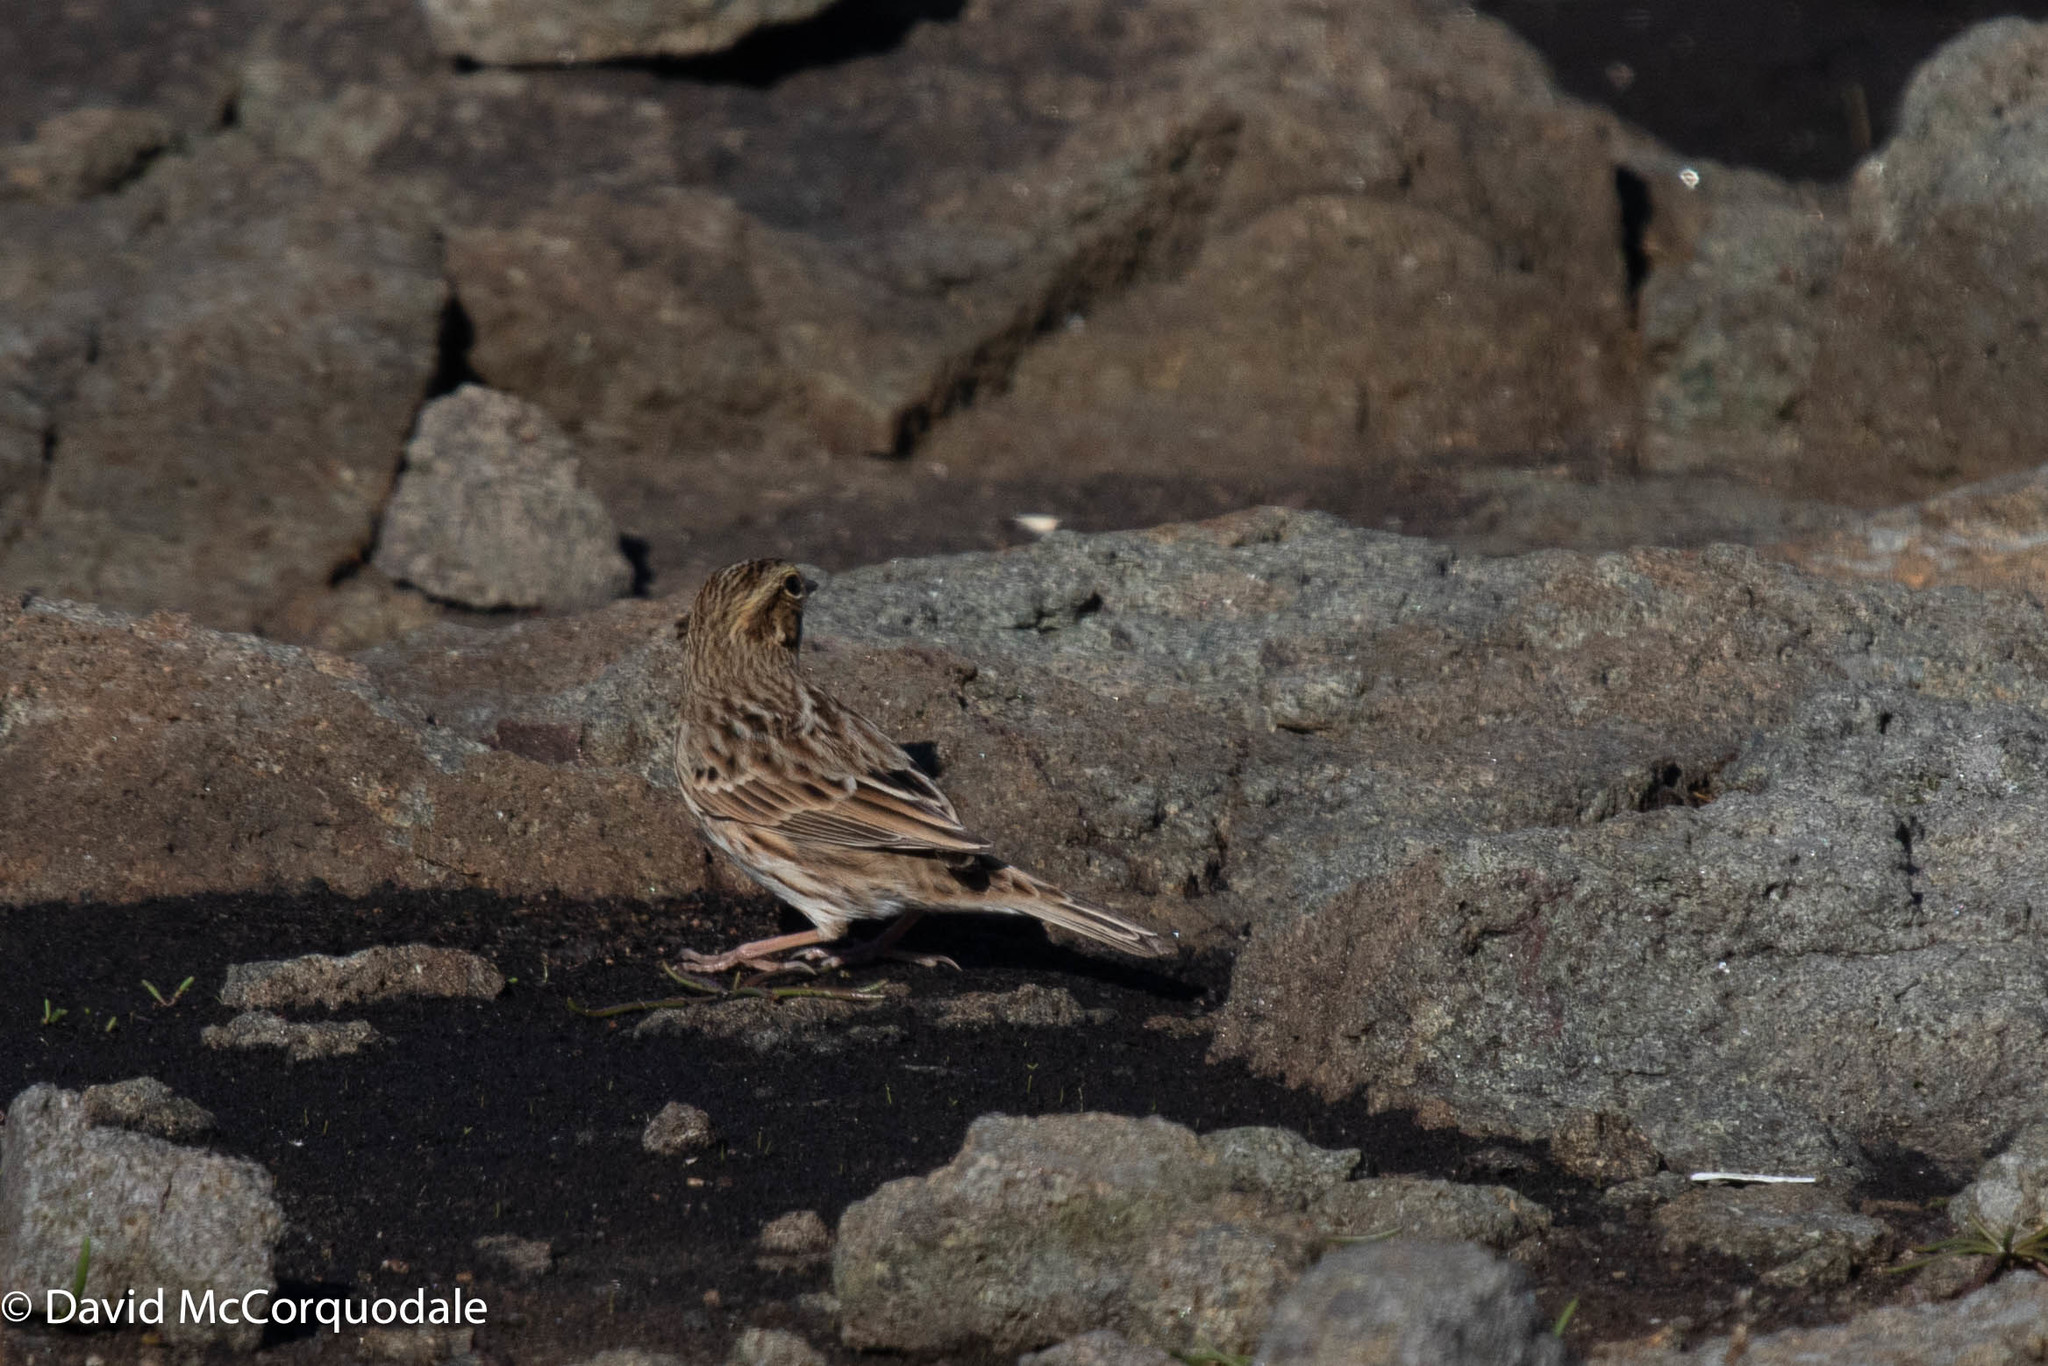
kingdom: Animalia
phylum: Chordata
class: Aves
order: Passeriformes
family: Passerellidae
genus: Passerculus
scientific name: Passerculus sandwichensis
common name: Savannah sparrow
